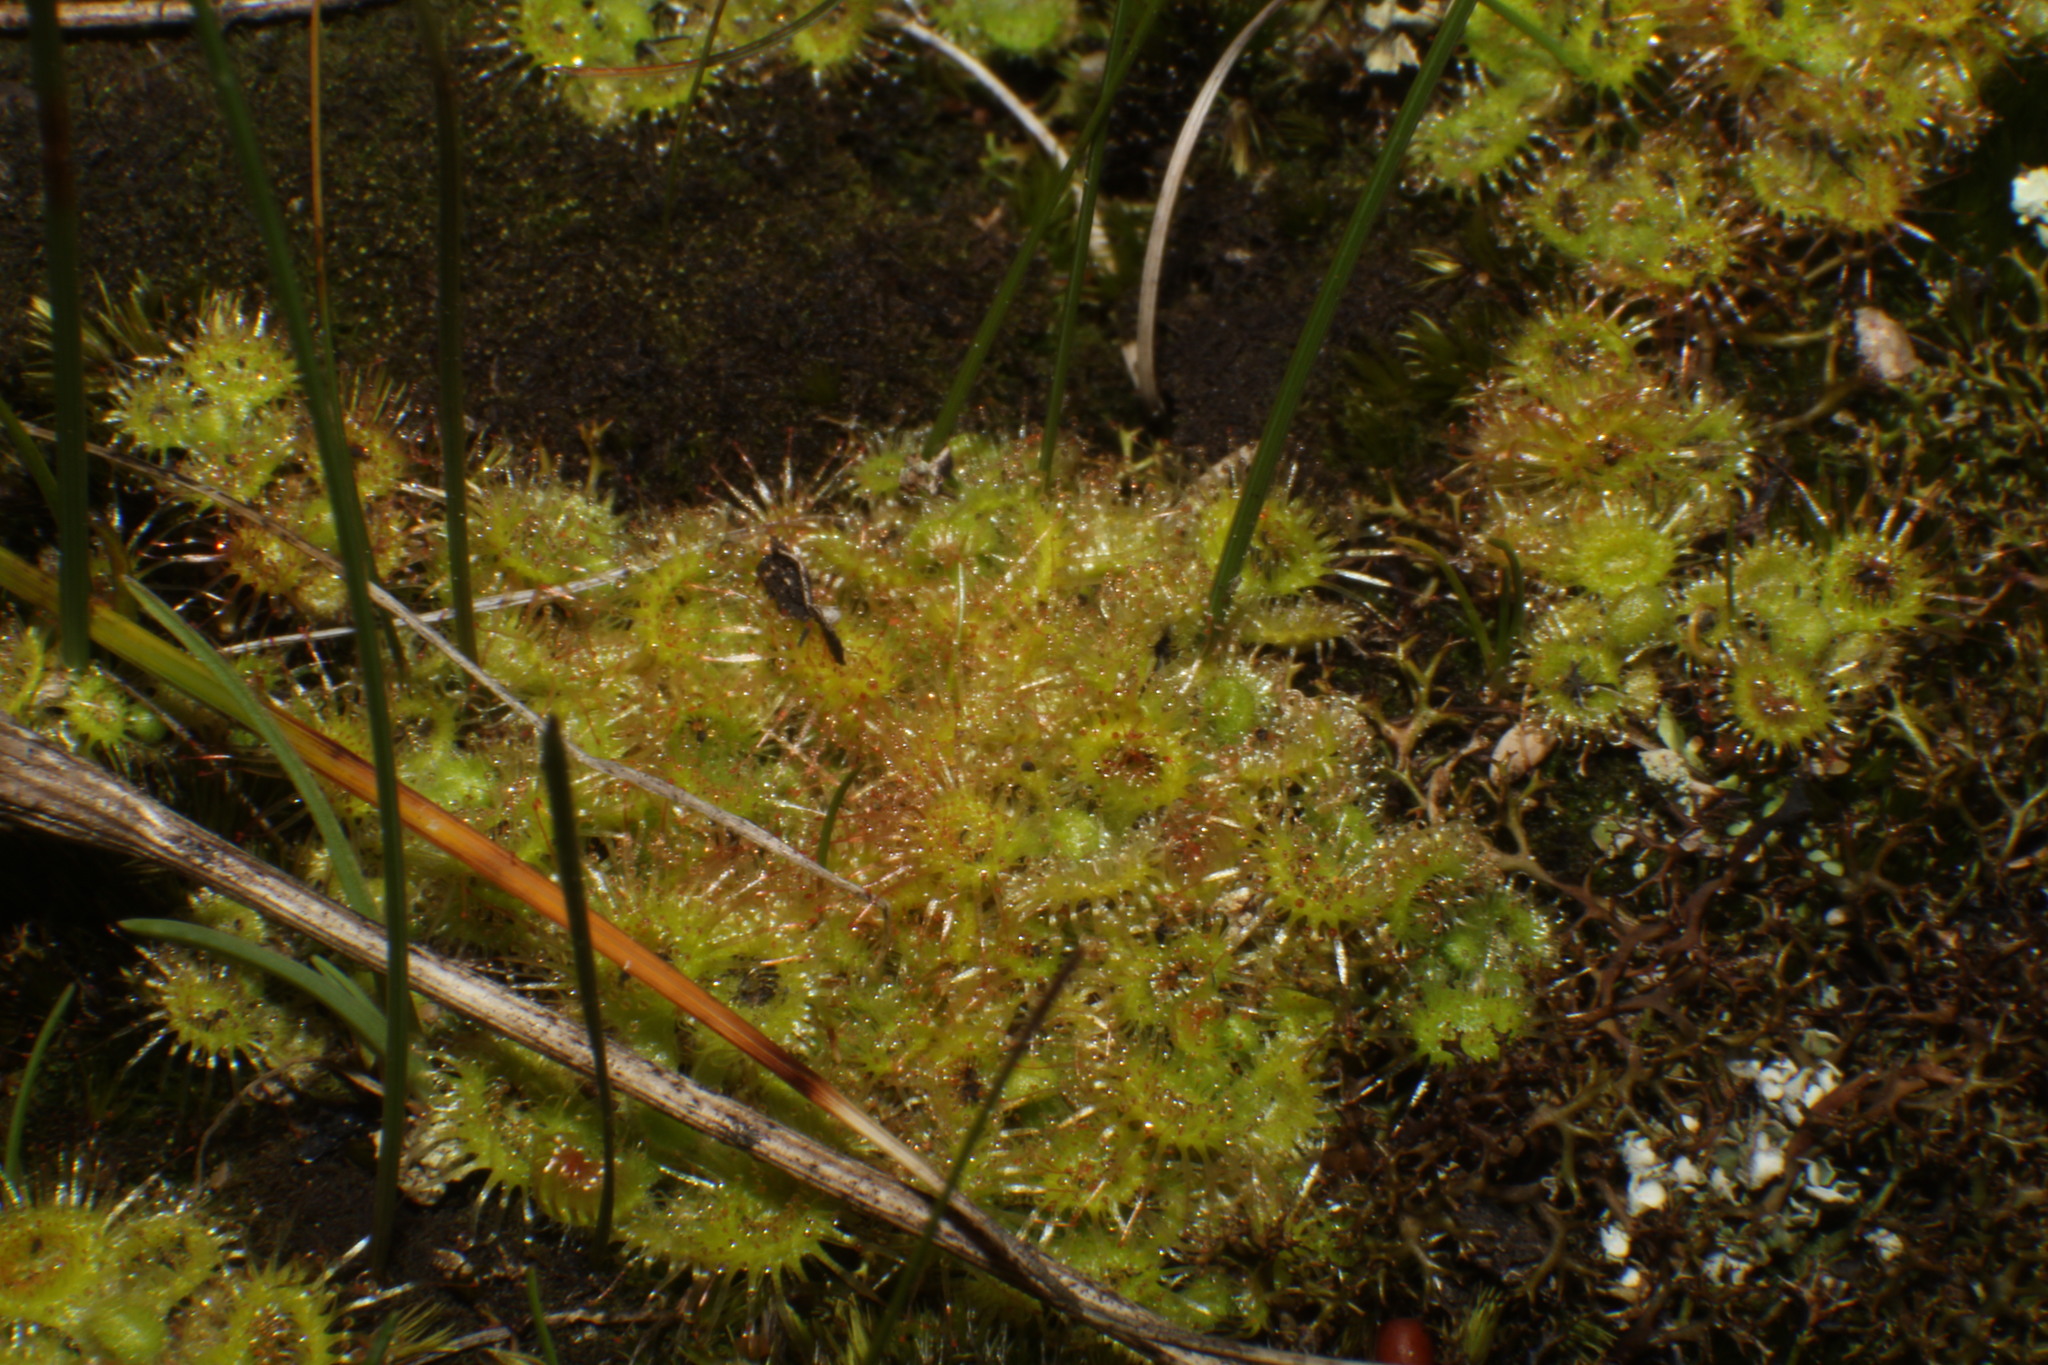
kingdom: Plantae
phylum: Tracheophyta
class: Magnoliopsida
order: Caryophyllales
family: Droseraceae
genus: Drosera
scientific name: Drosera glanduligera
